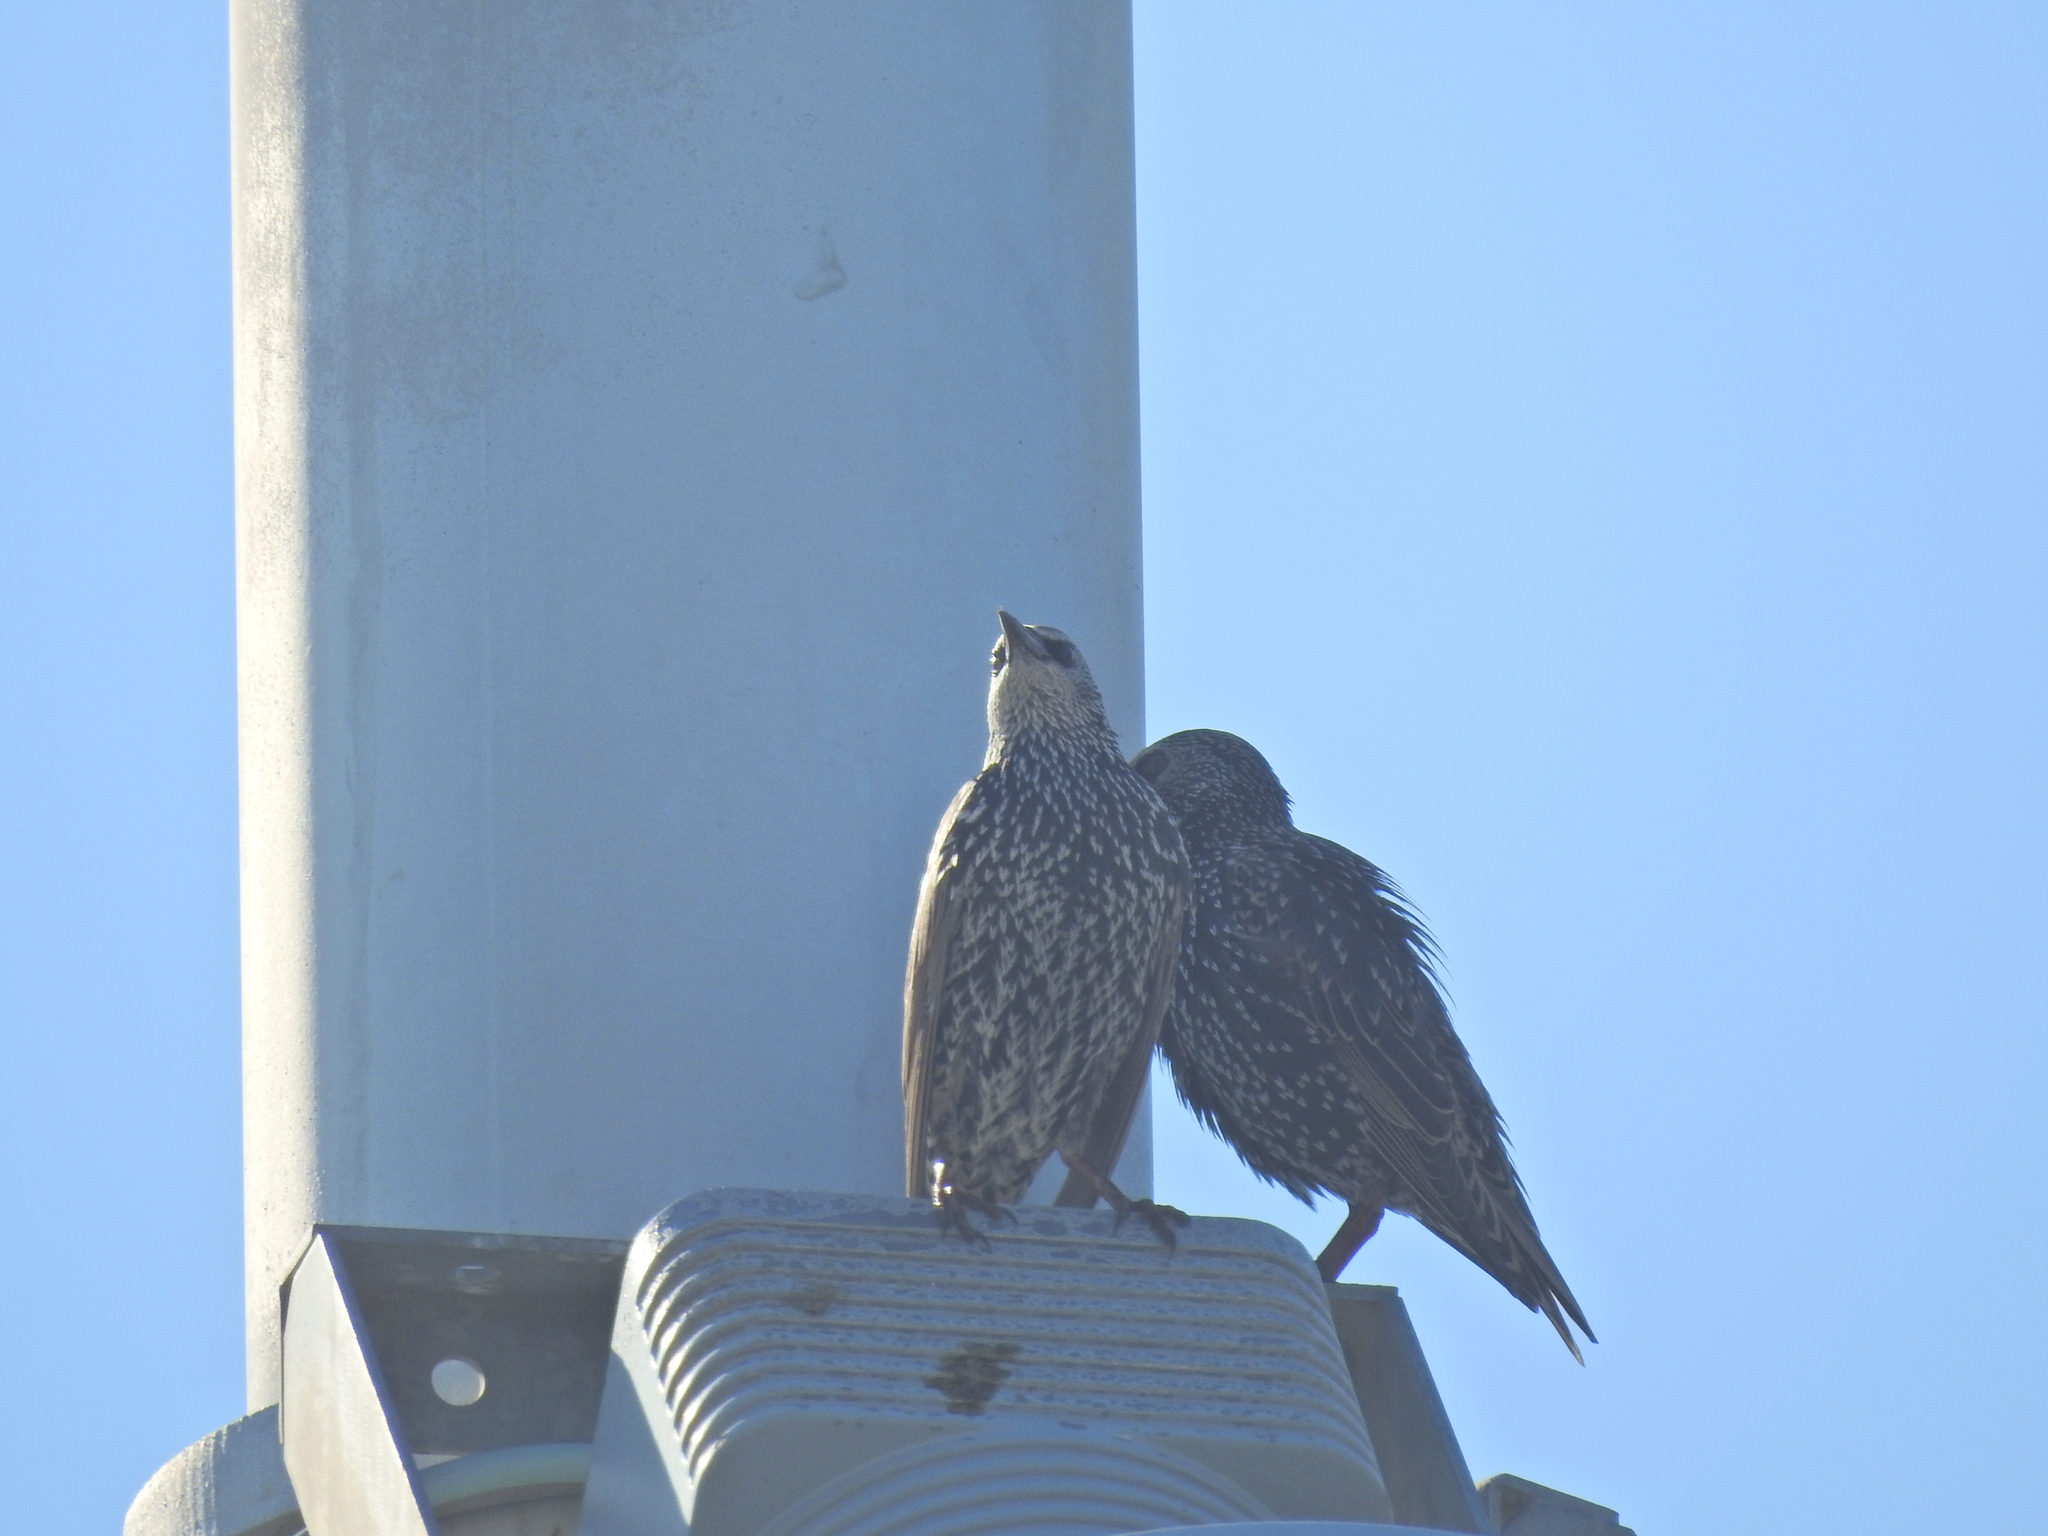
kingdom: Animalia
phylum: Chordata
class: Aves
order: Passeriformes
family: Sturnidae
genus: Sturnus
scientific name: Sturnus vulgaris
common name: Common starling
